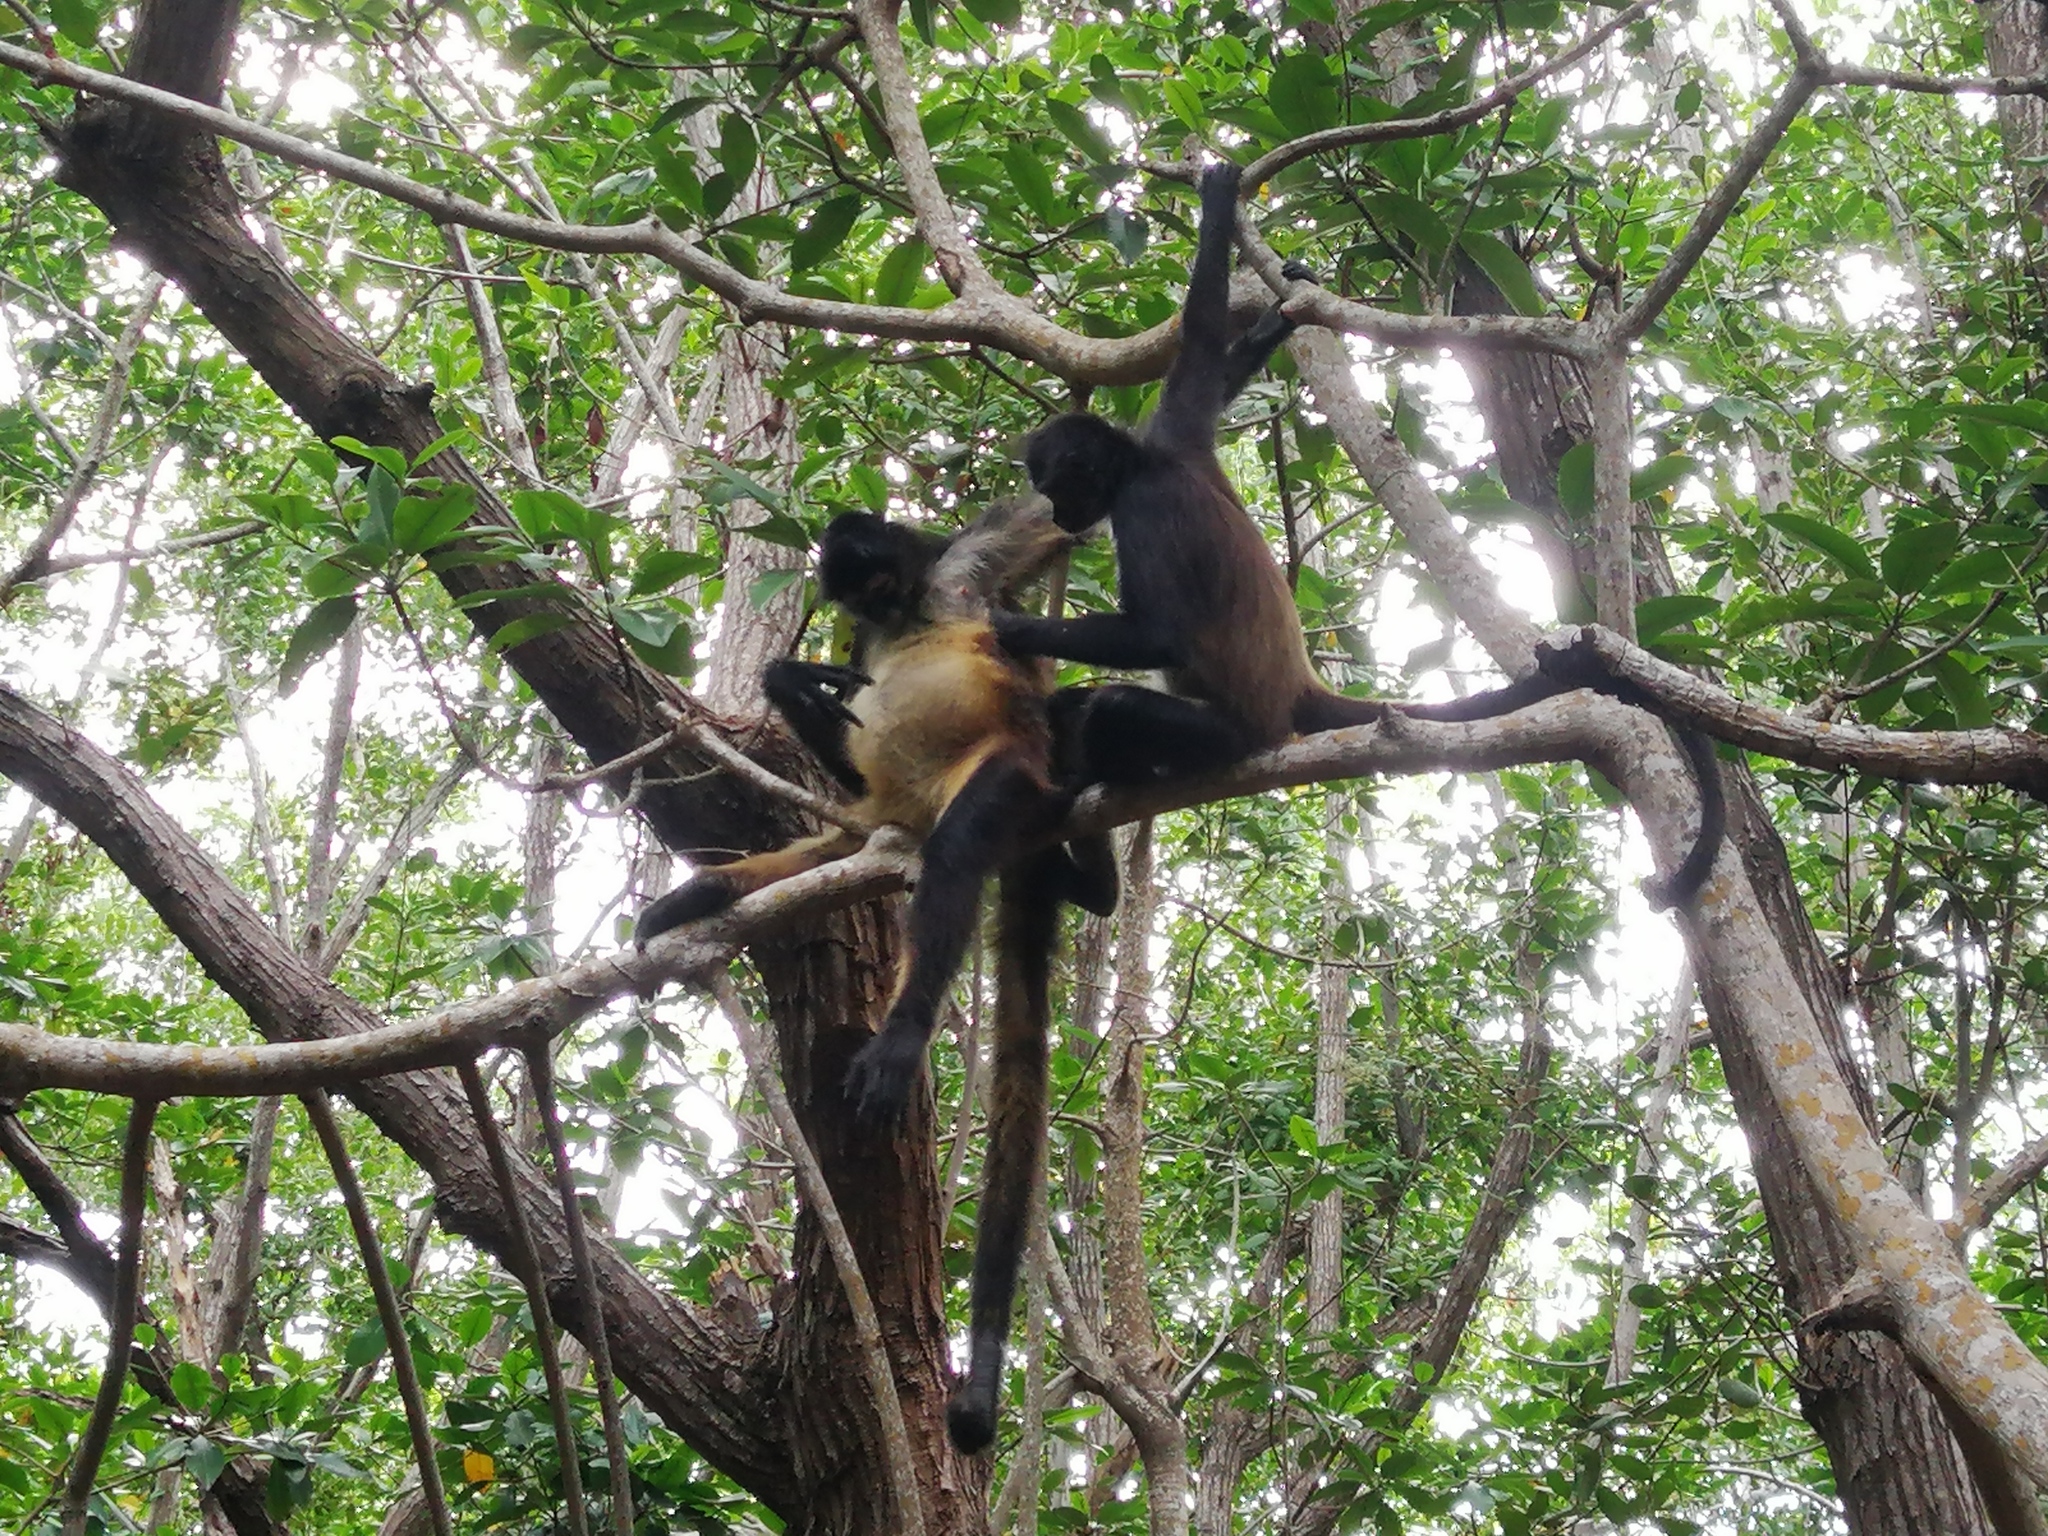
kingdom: Animalia
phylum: Chordata
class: Mammalia
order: Primates
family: Atelidae
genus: Ateles
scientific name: Ateles geoffroyi
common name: Black-handed spider monkey
